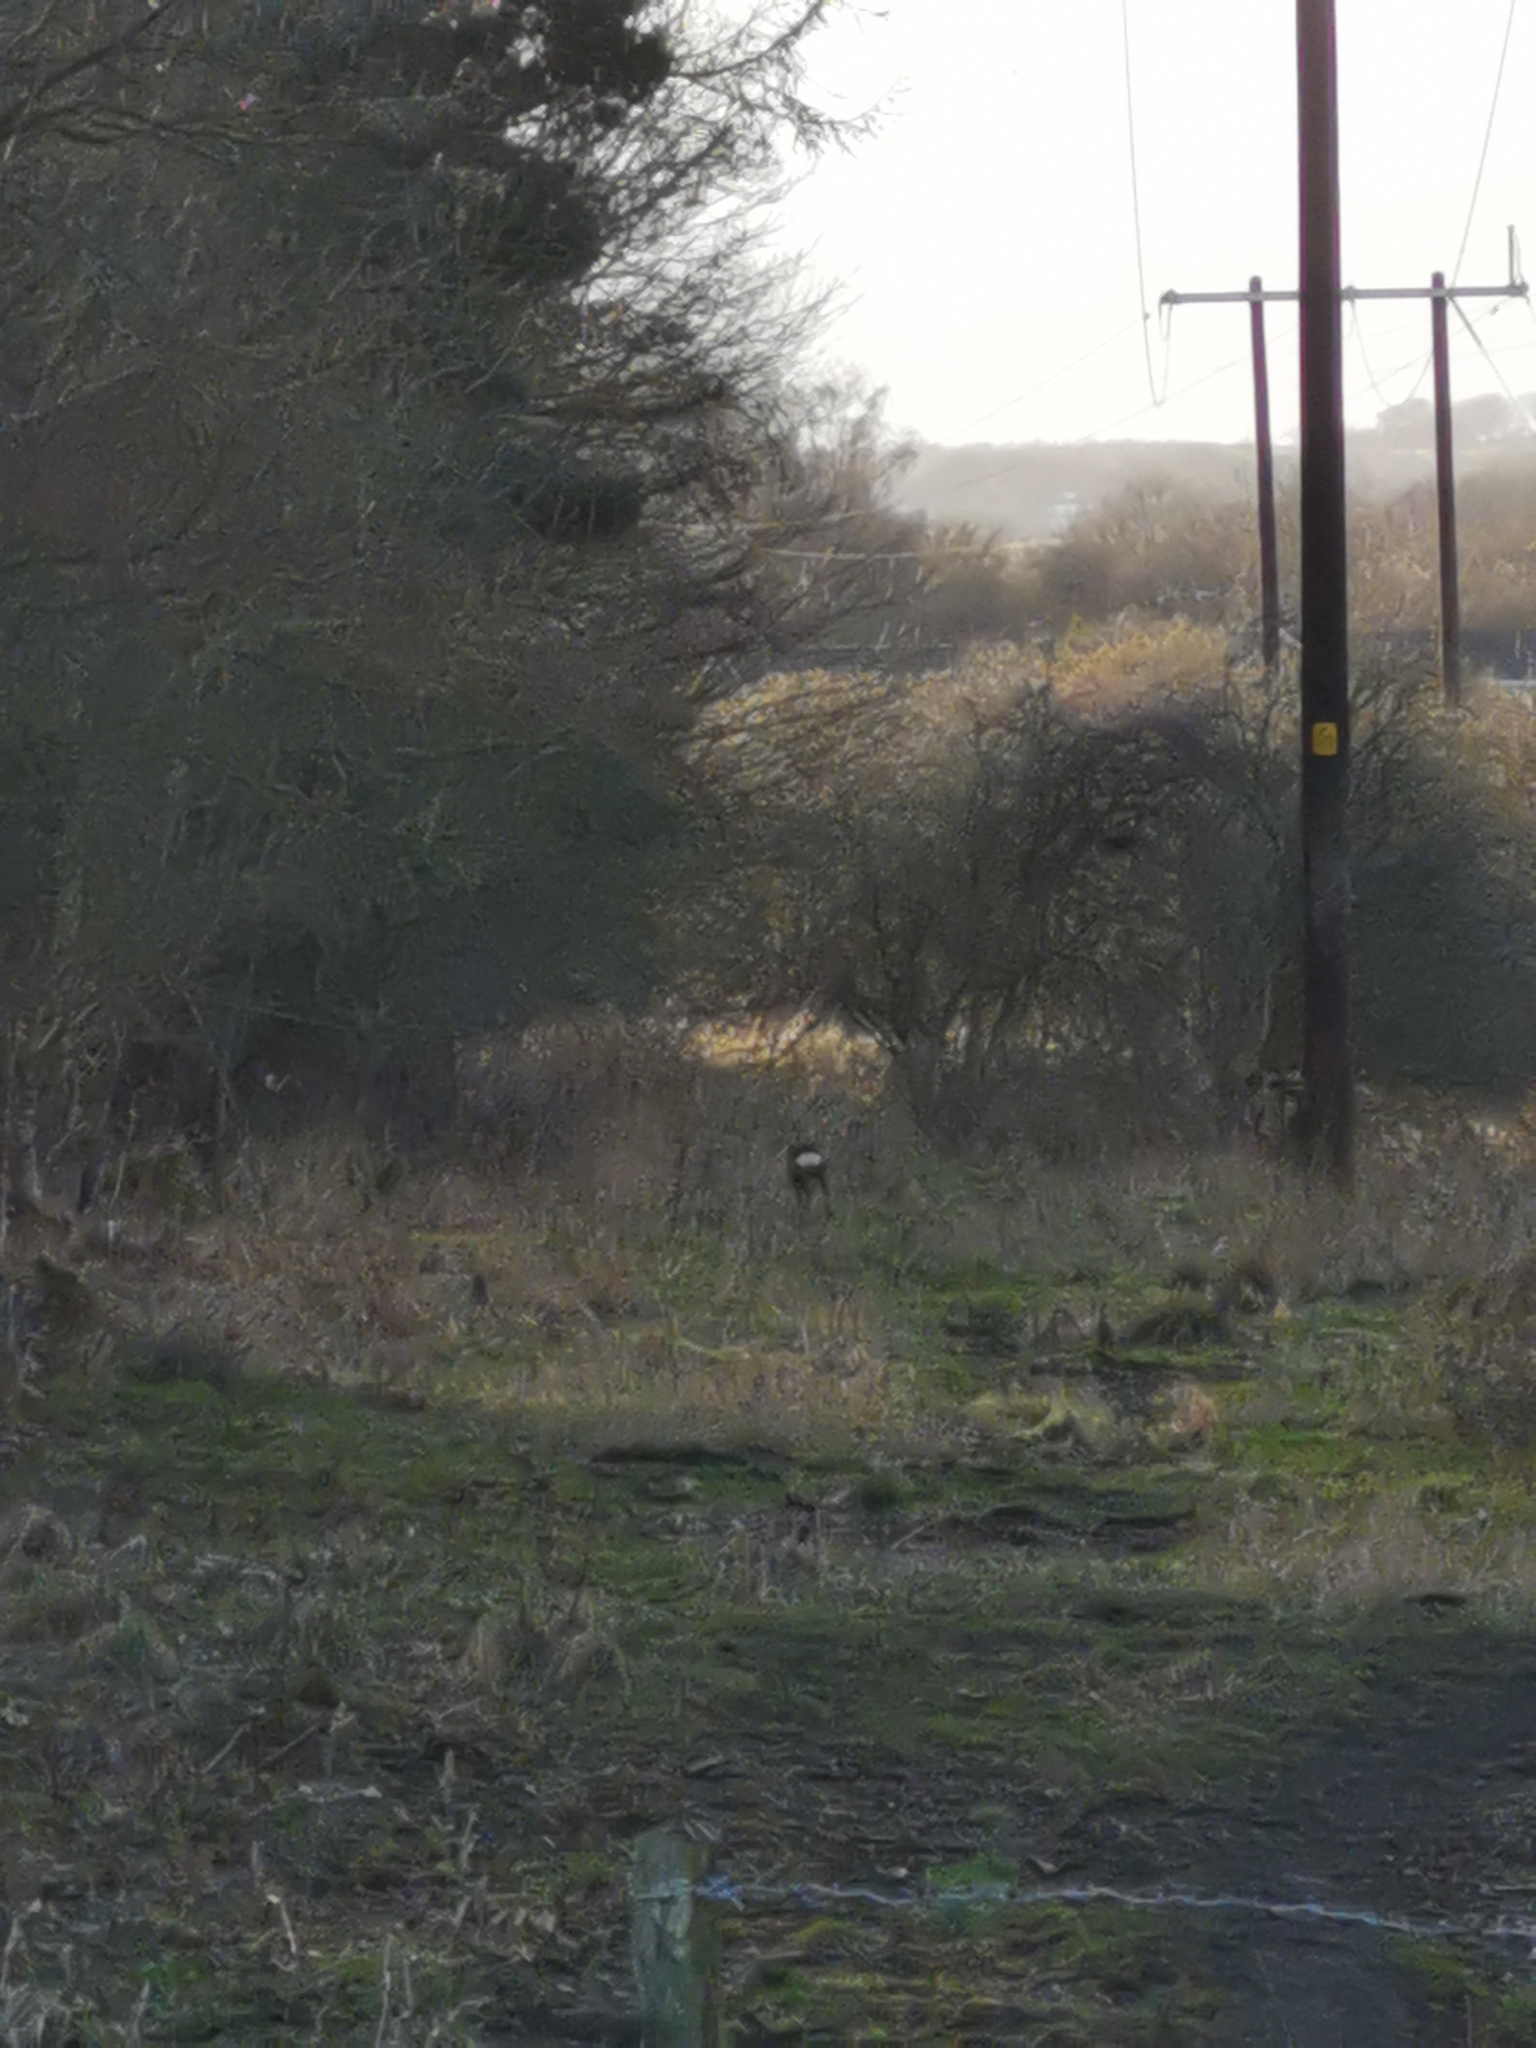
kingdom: Animalia
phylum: Chordata
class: Mammalia
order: Artiodactyla
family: Cervidae
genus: Capreolus
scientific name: Capreolus capreolus
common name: Western roe deer
